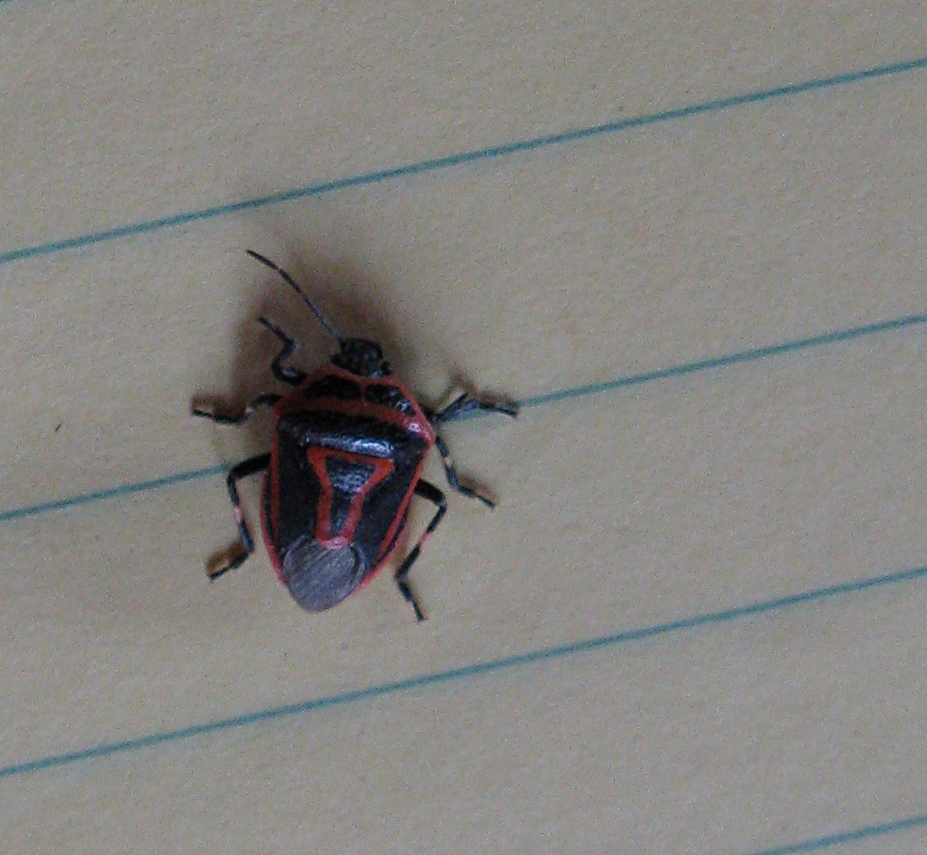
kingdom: Animalia
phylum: Arthropoda
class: Insecta
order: Hemiptera
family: Pentatomidae
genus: Perillus
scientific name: Perillus bioculatus
